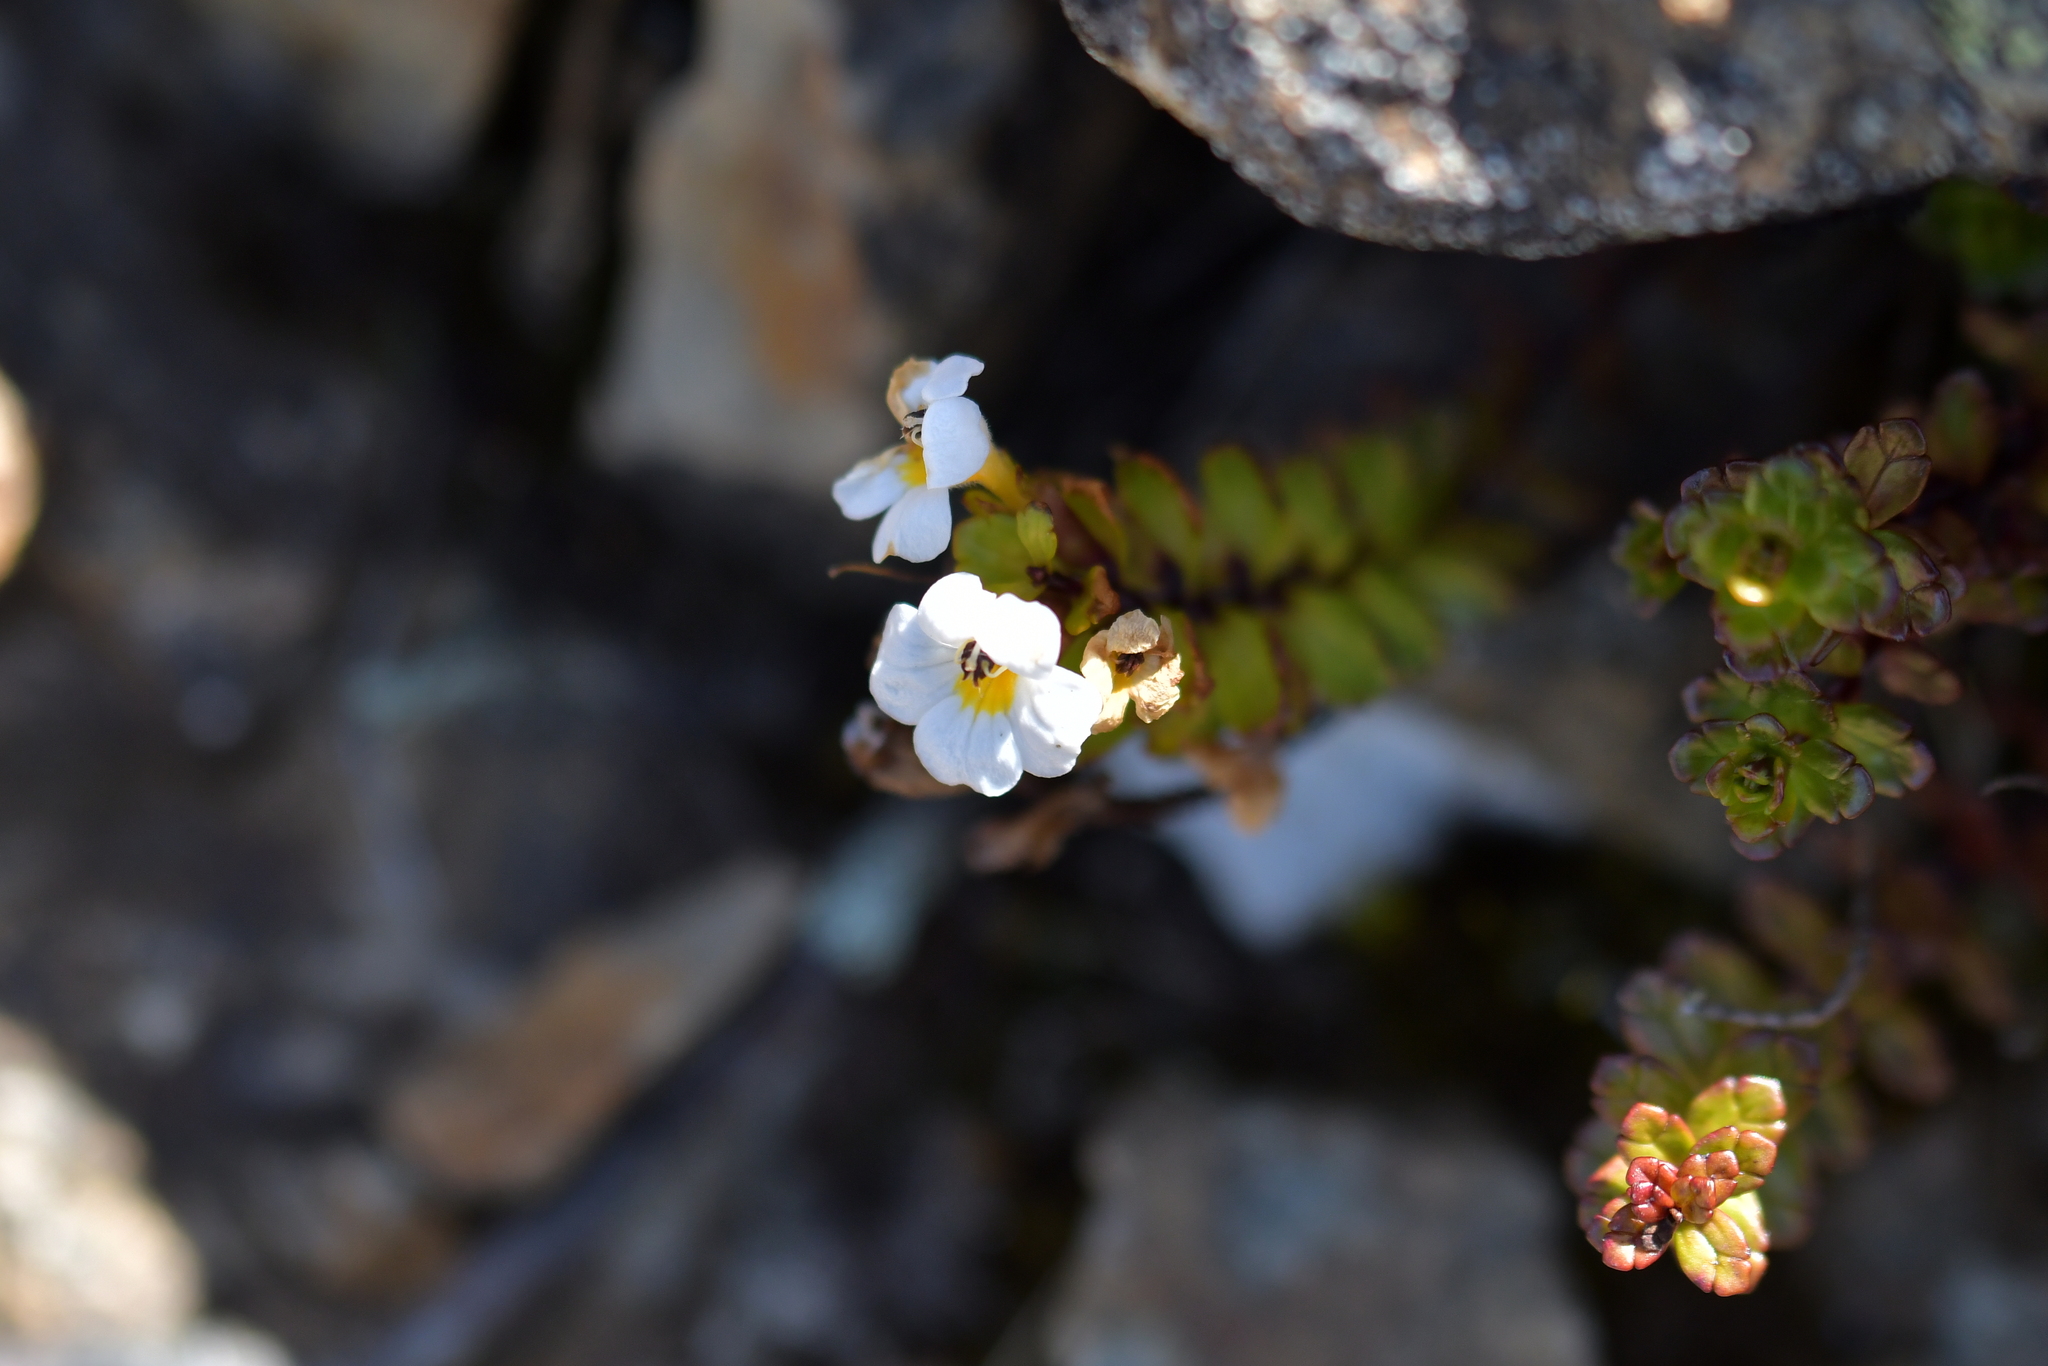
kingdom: Plantae
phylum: Tracheophyta
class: Magnoliopsida
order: Lamiales
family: Orobanchaceae
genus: Euphrasia
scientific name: Euphrasia monroi
